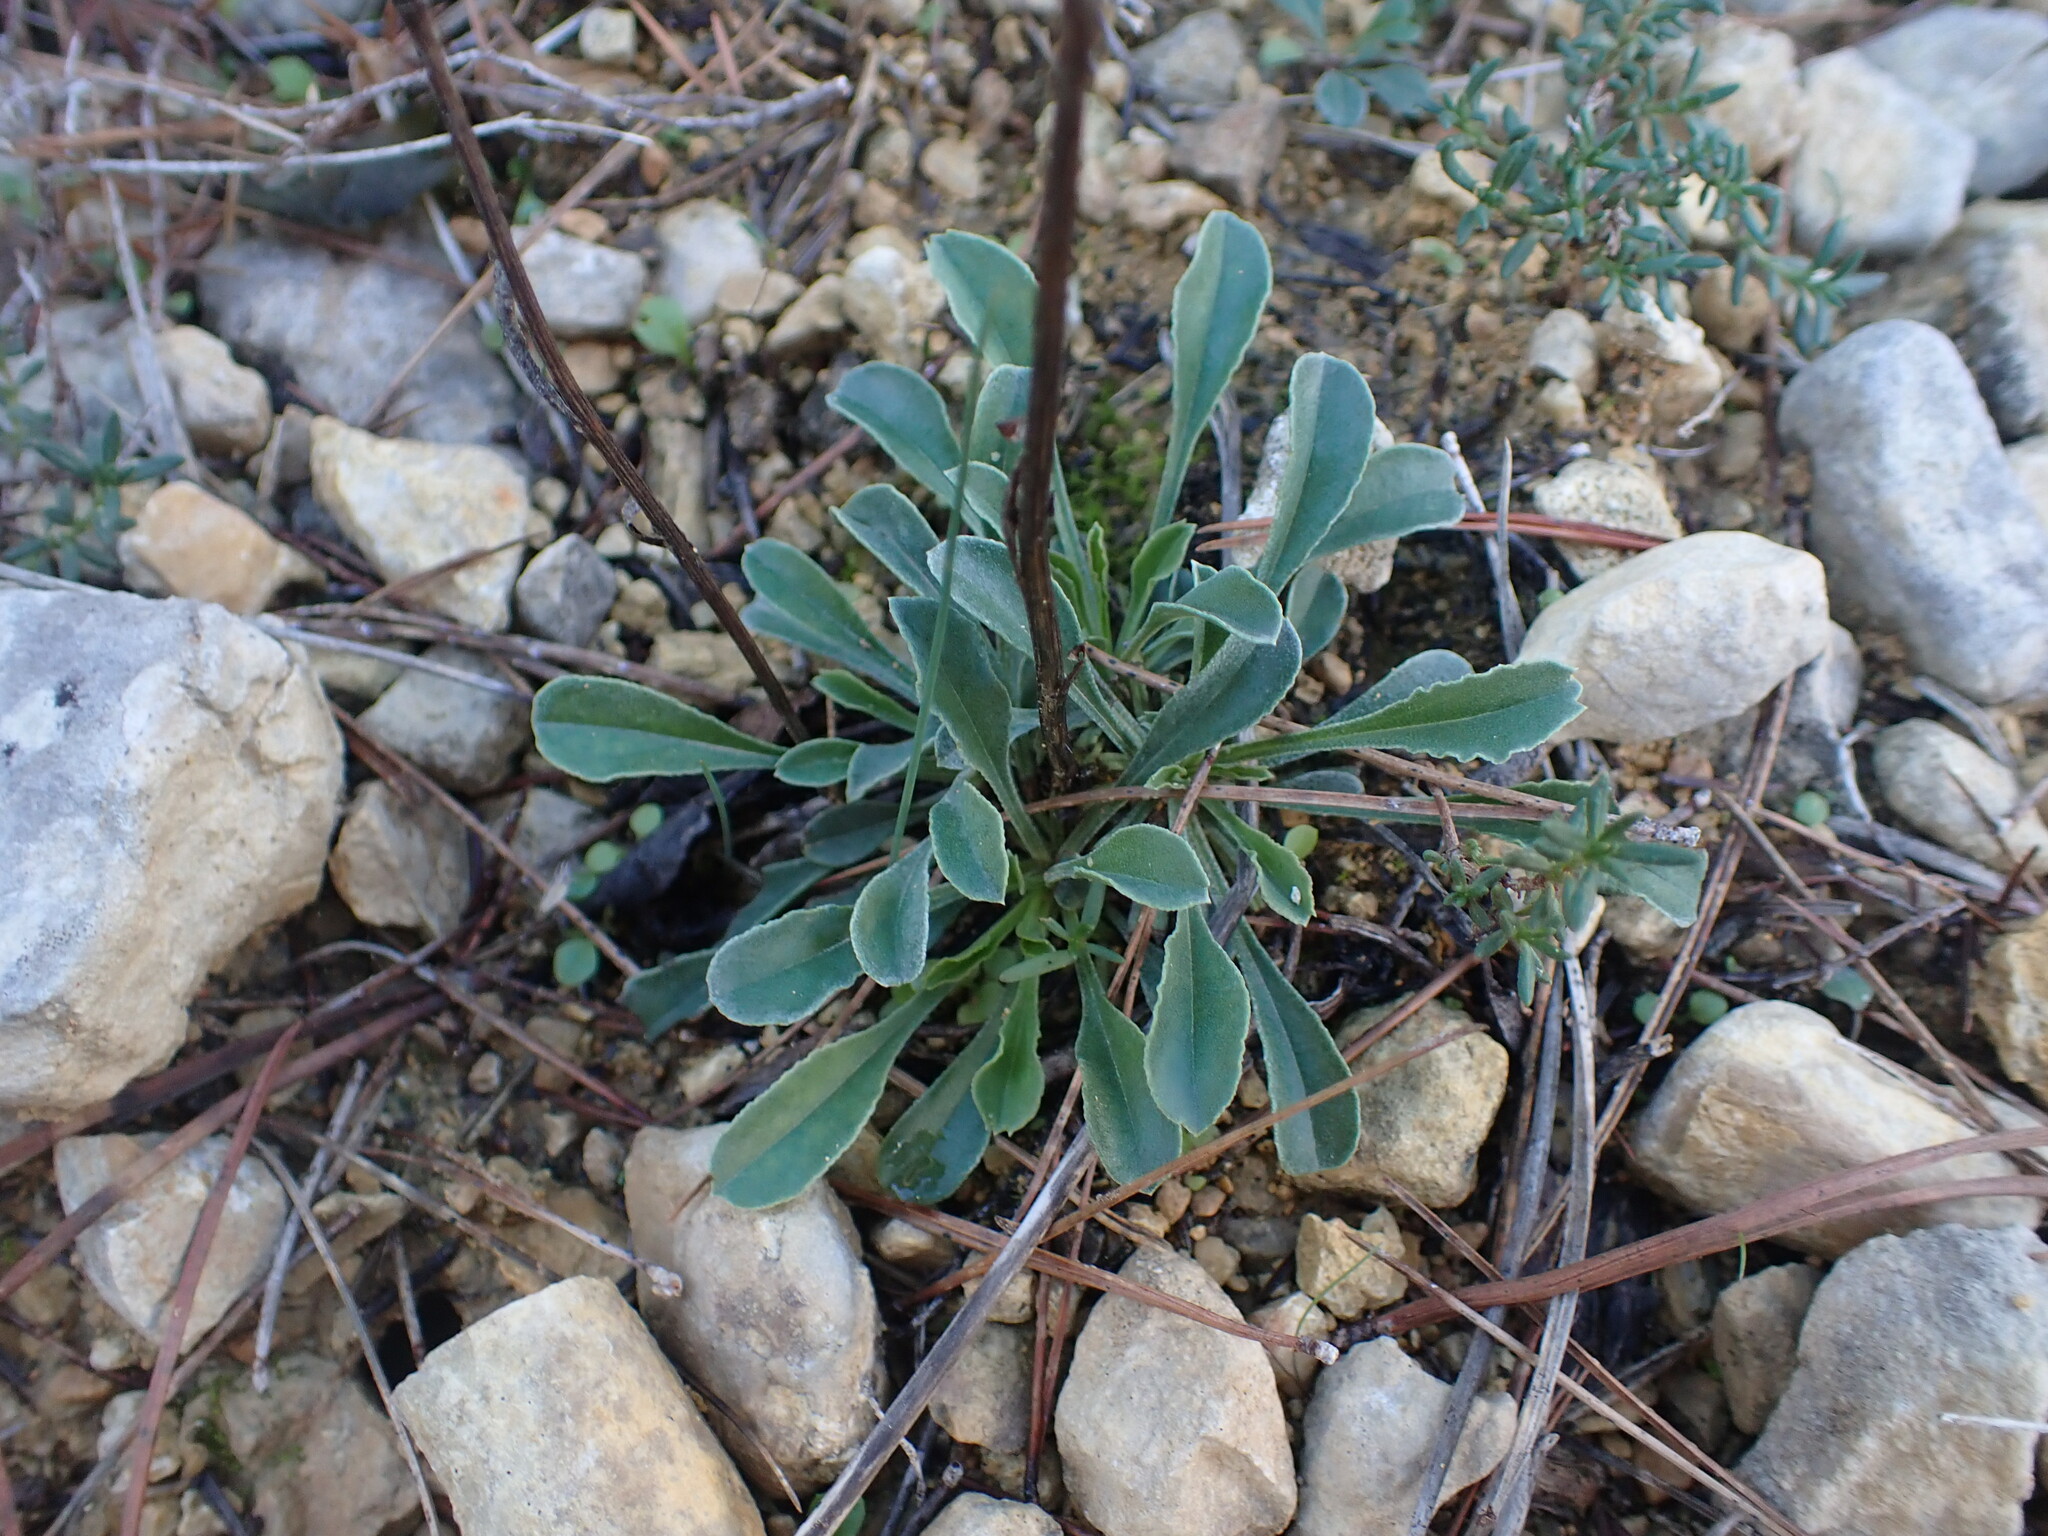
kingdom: Plantae
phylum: Tracheophyta
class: Magnoliopsida
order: Lamiales
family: Plantaginaceae
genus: Globularia
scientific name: Globularia vulgaris
